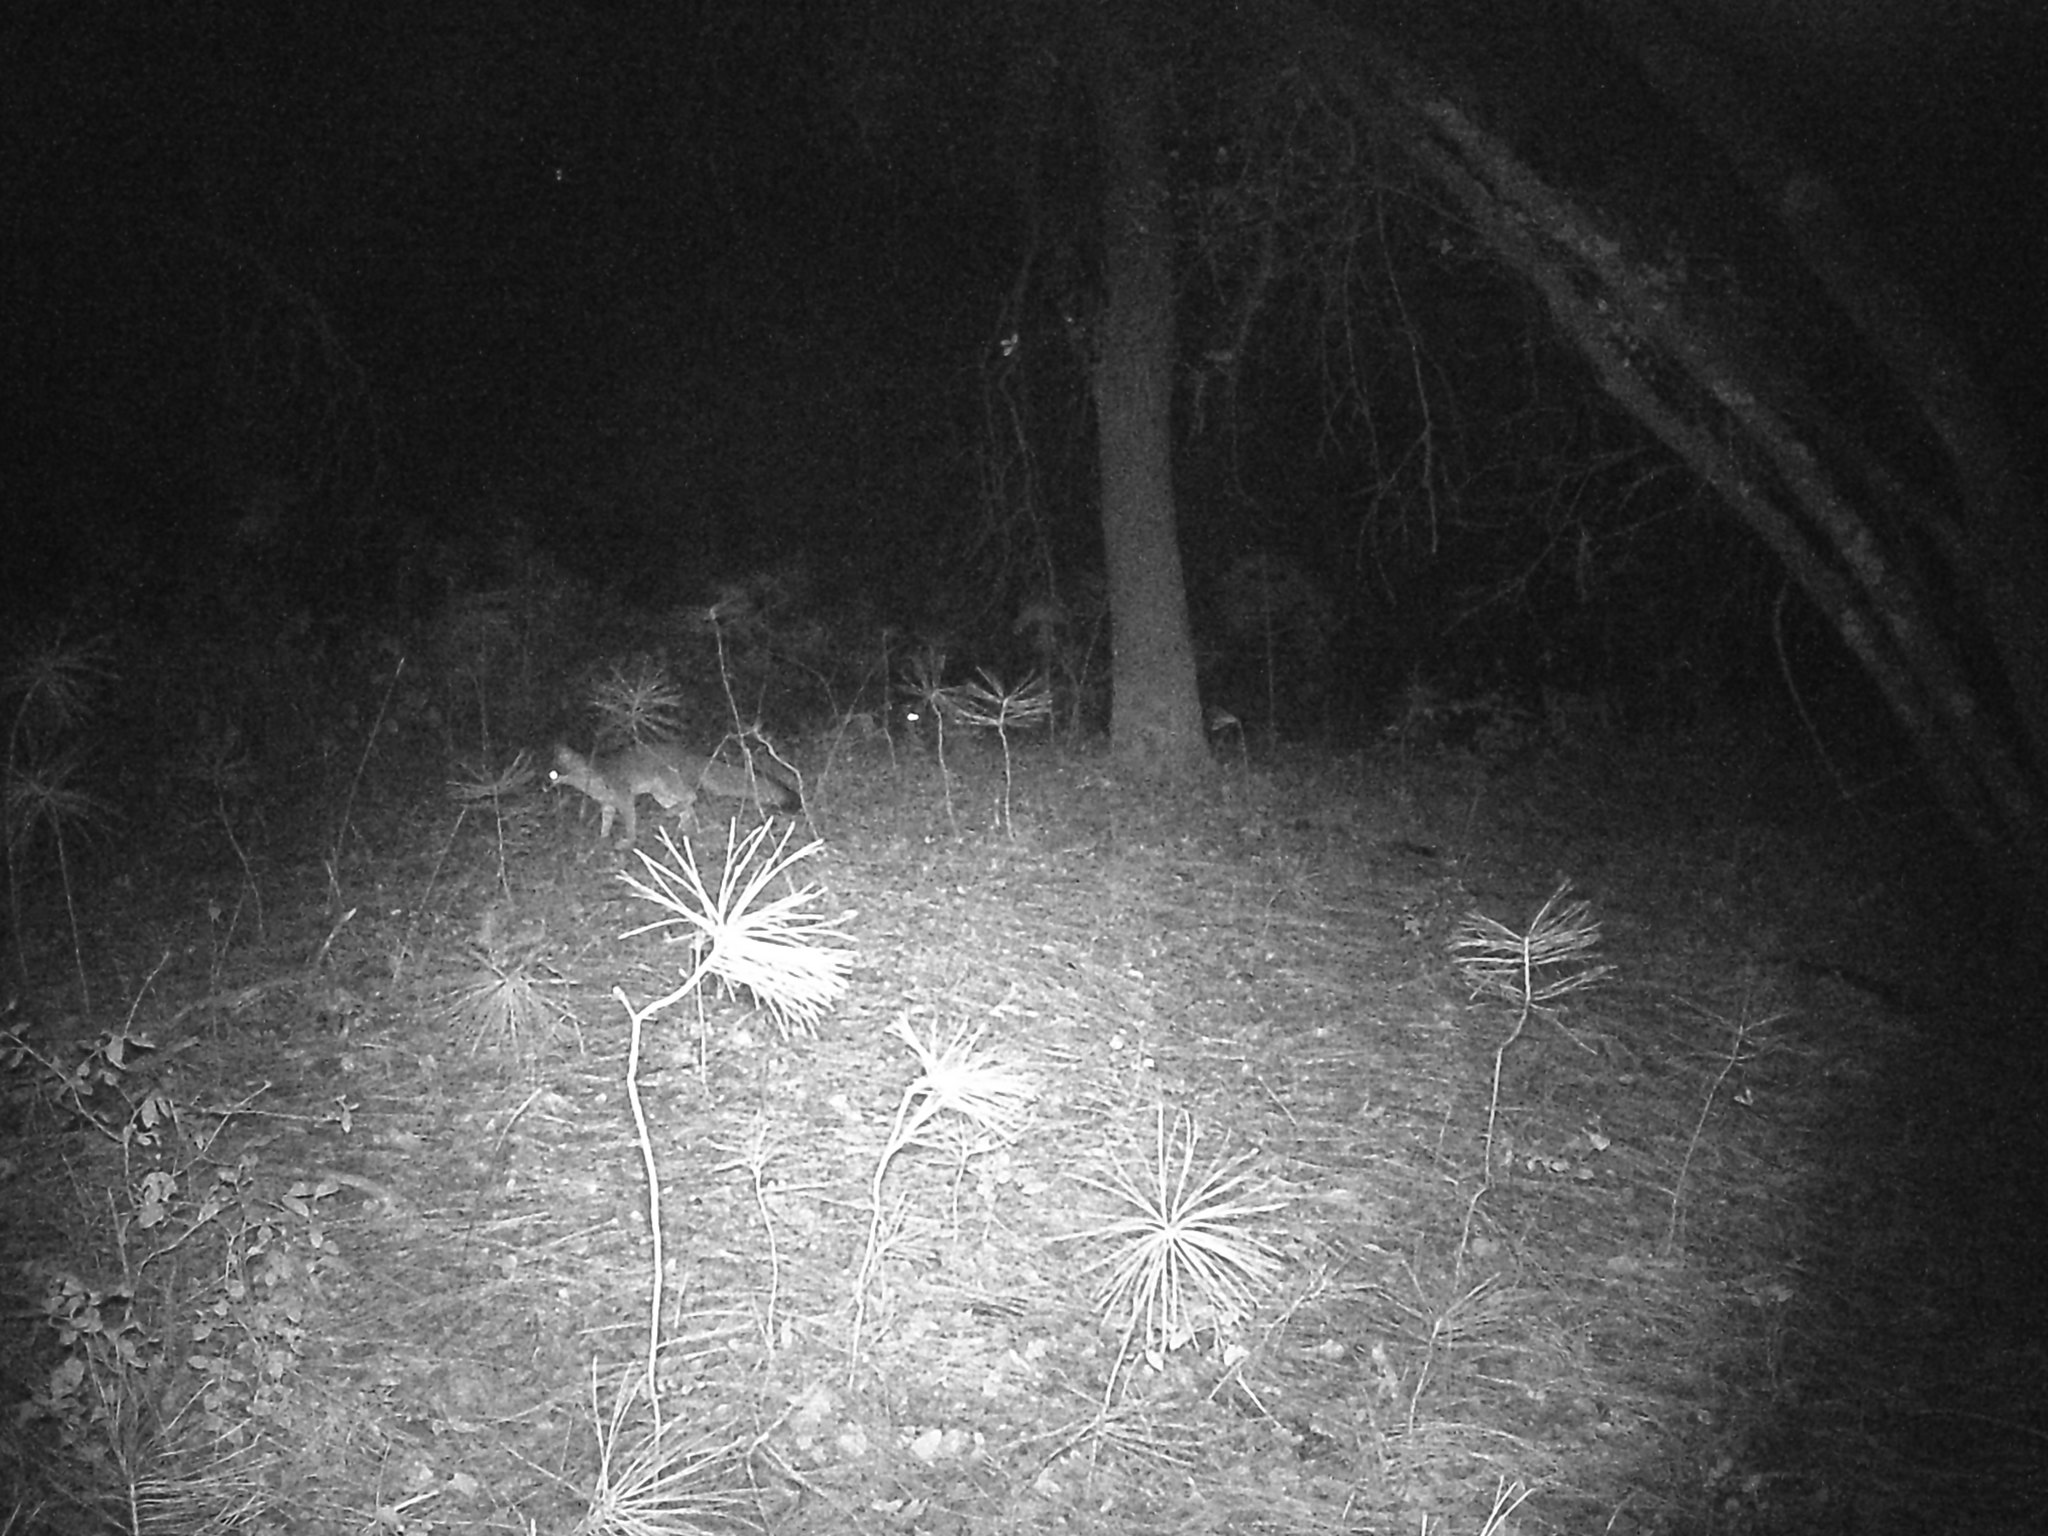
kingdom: Animalia
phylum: Chordata
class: Mammalia
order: Carnivora
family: Canidae
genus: Urocyon
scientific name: Urocyon cinereoargenteus
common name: Gray fox
